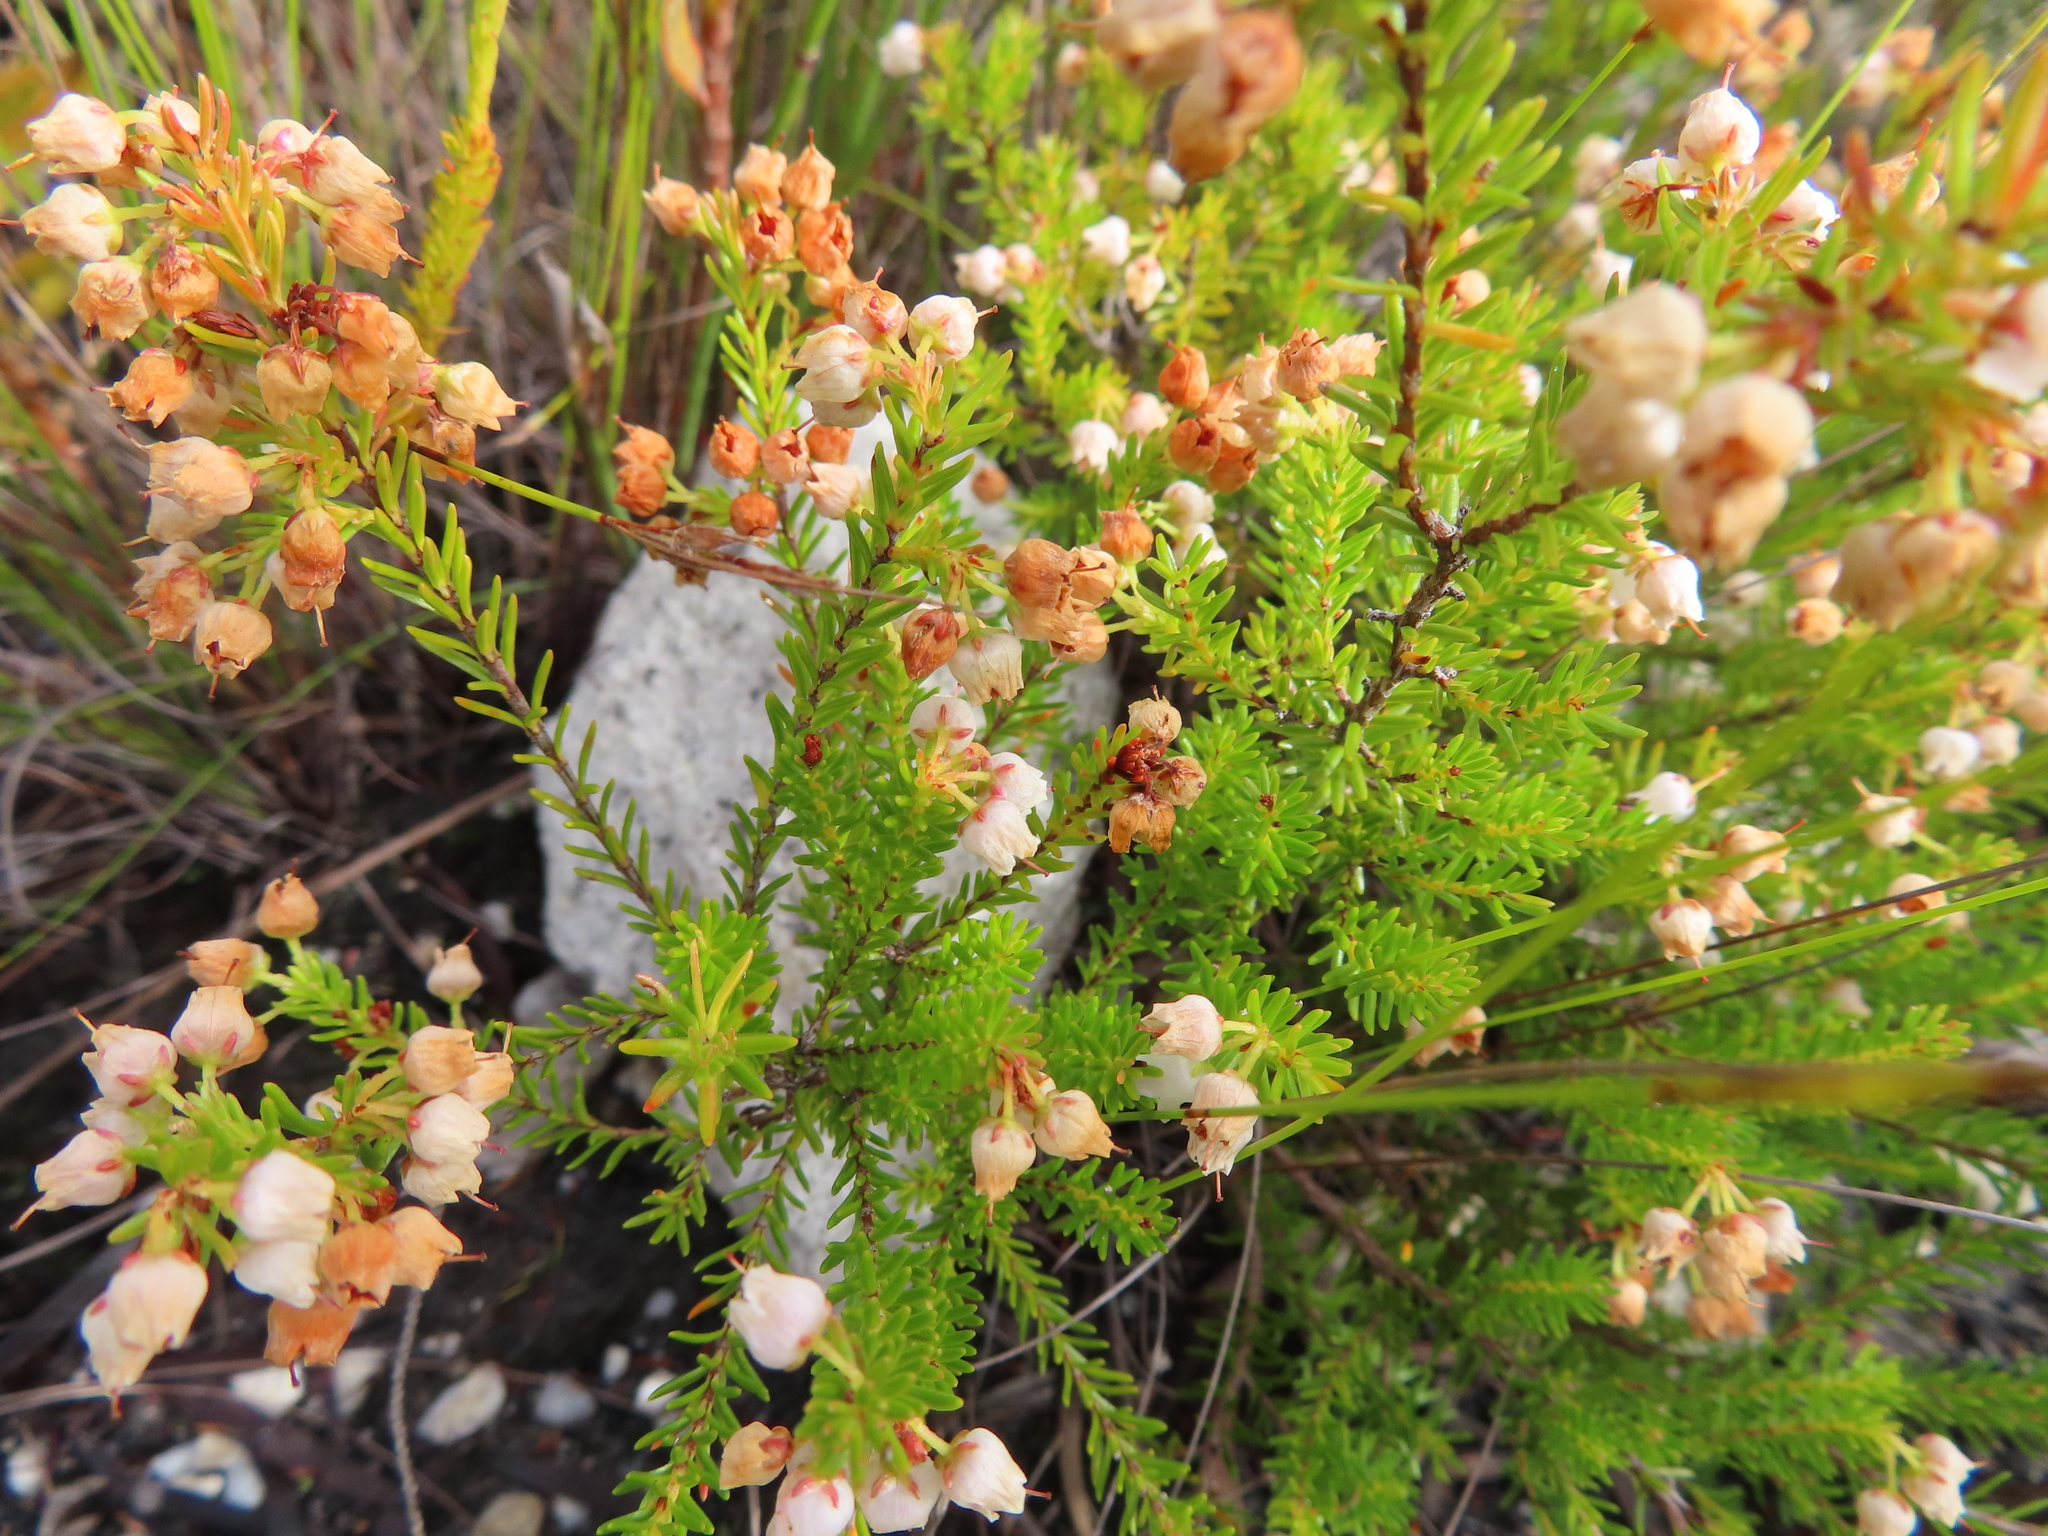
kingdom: Plantae
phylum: Tracheophyta
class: Magnoliopsida
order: Ericales
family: Ericaceae
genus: Erica
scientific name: Erica curvirostris
